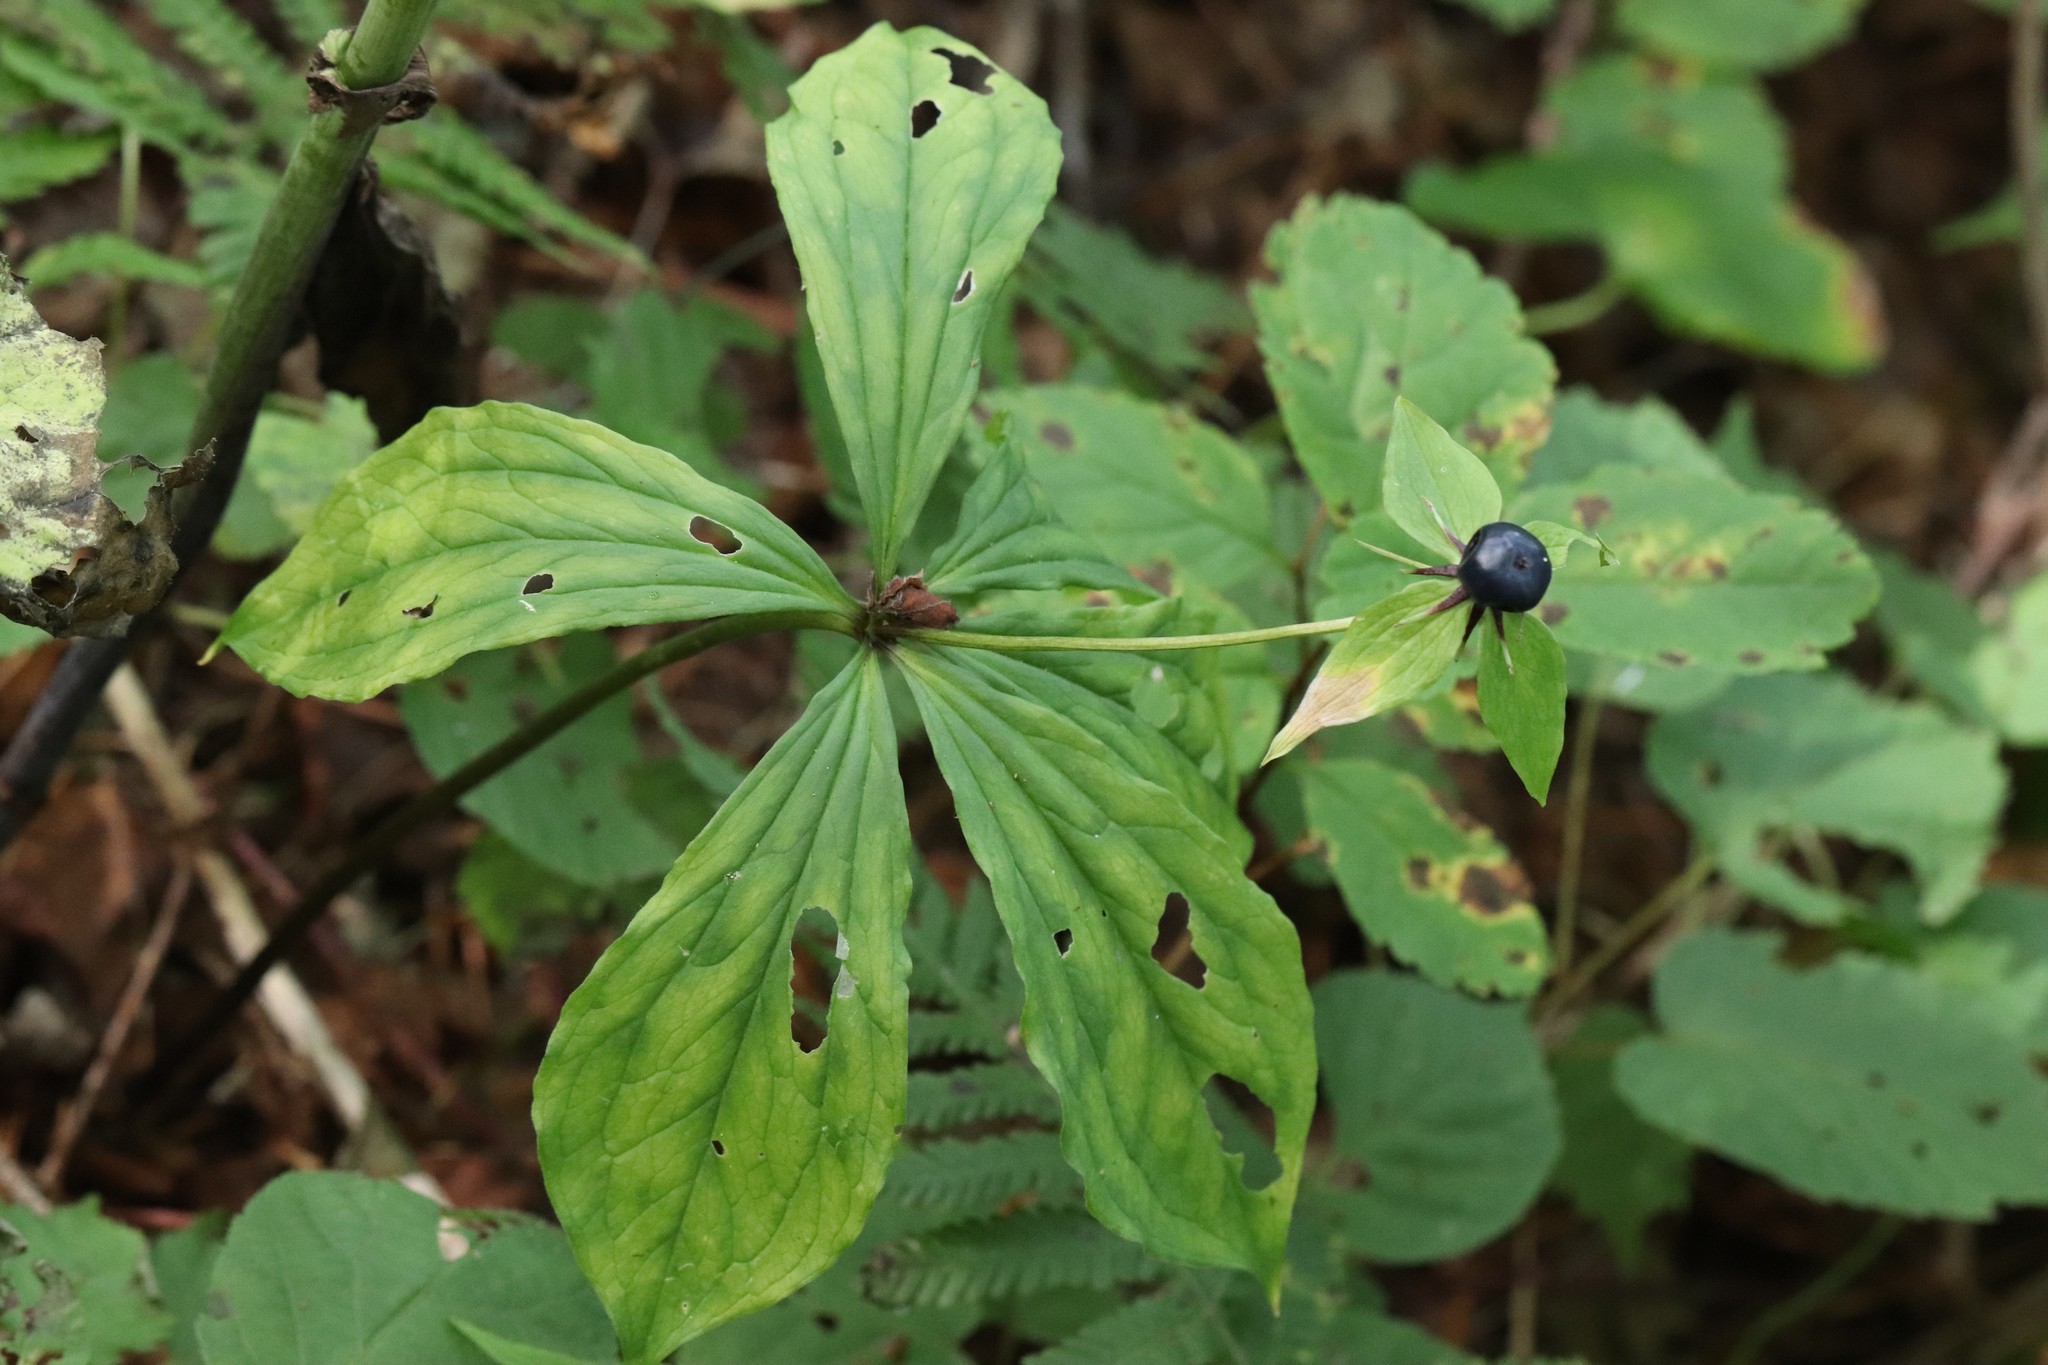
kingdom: Plantae
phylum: Tracheophyta
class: Liliopsida
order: Liliales
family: Melanthiaceae
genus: Paris
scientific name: Paris verticillata
